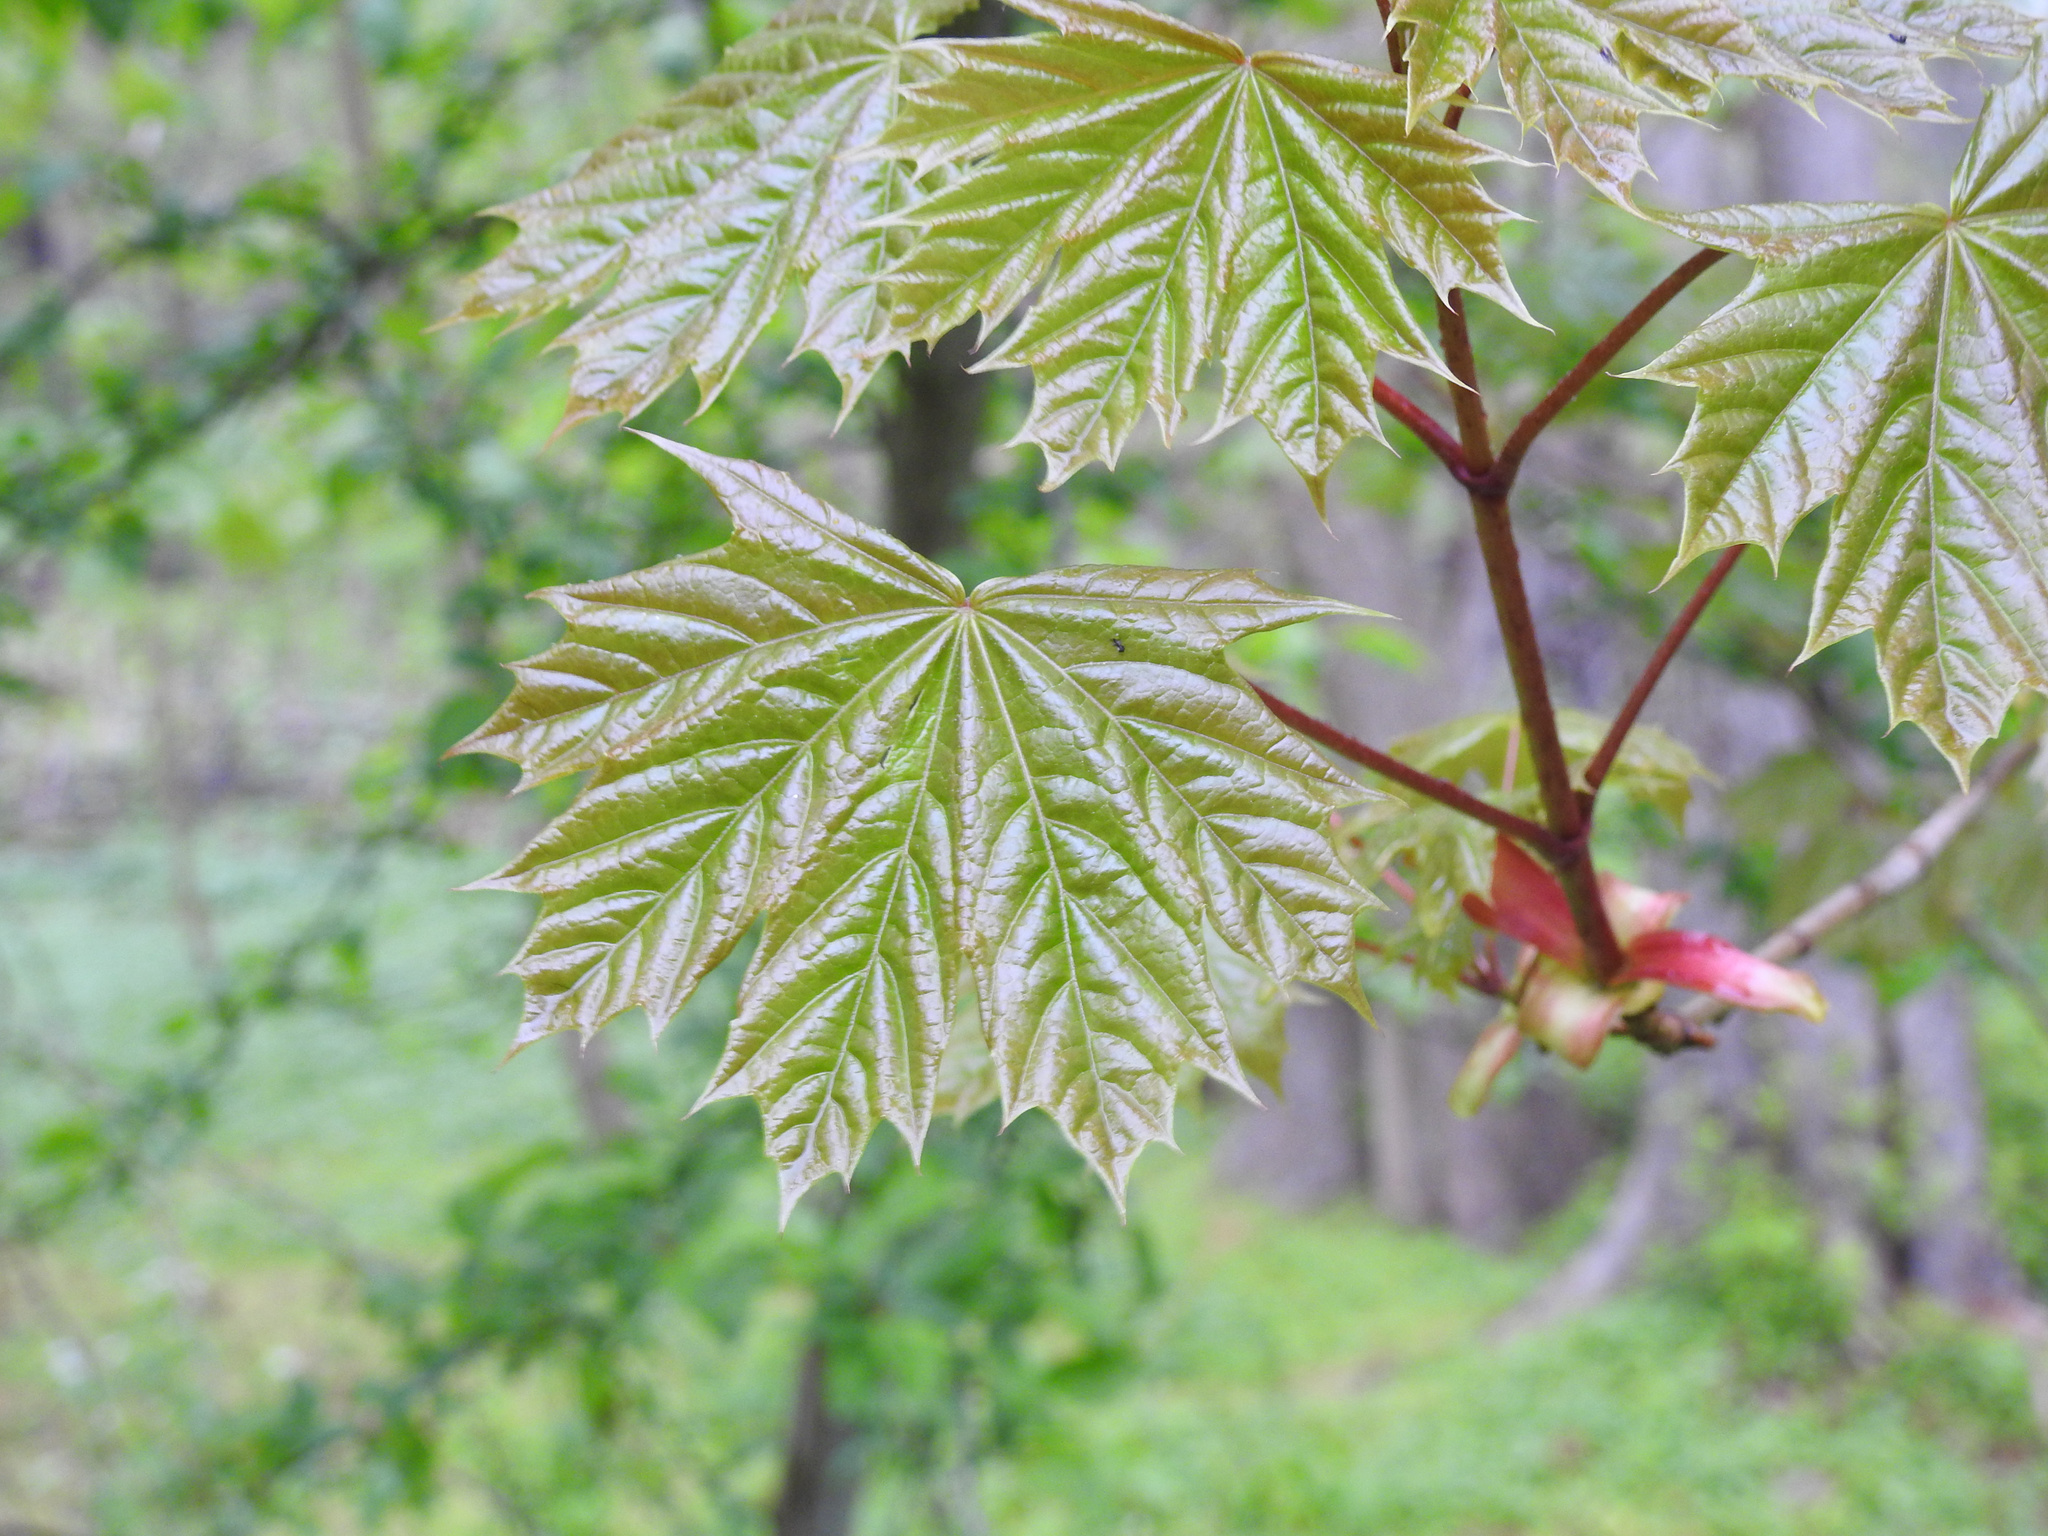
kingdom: Plantae
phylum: Tracheophyta
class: Magnoliopsida
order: Sapindales
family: Sapindaceae
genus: Acer
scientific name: Acer platanoides
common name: Norway maple
